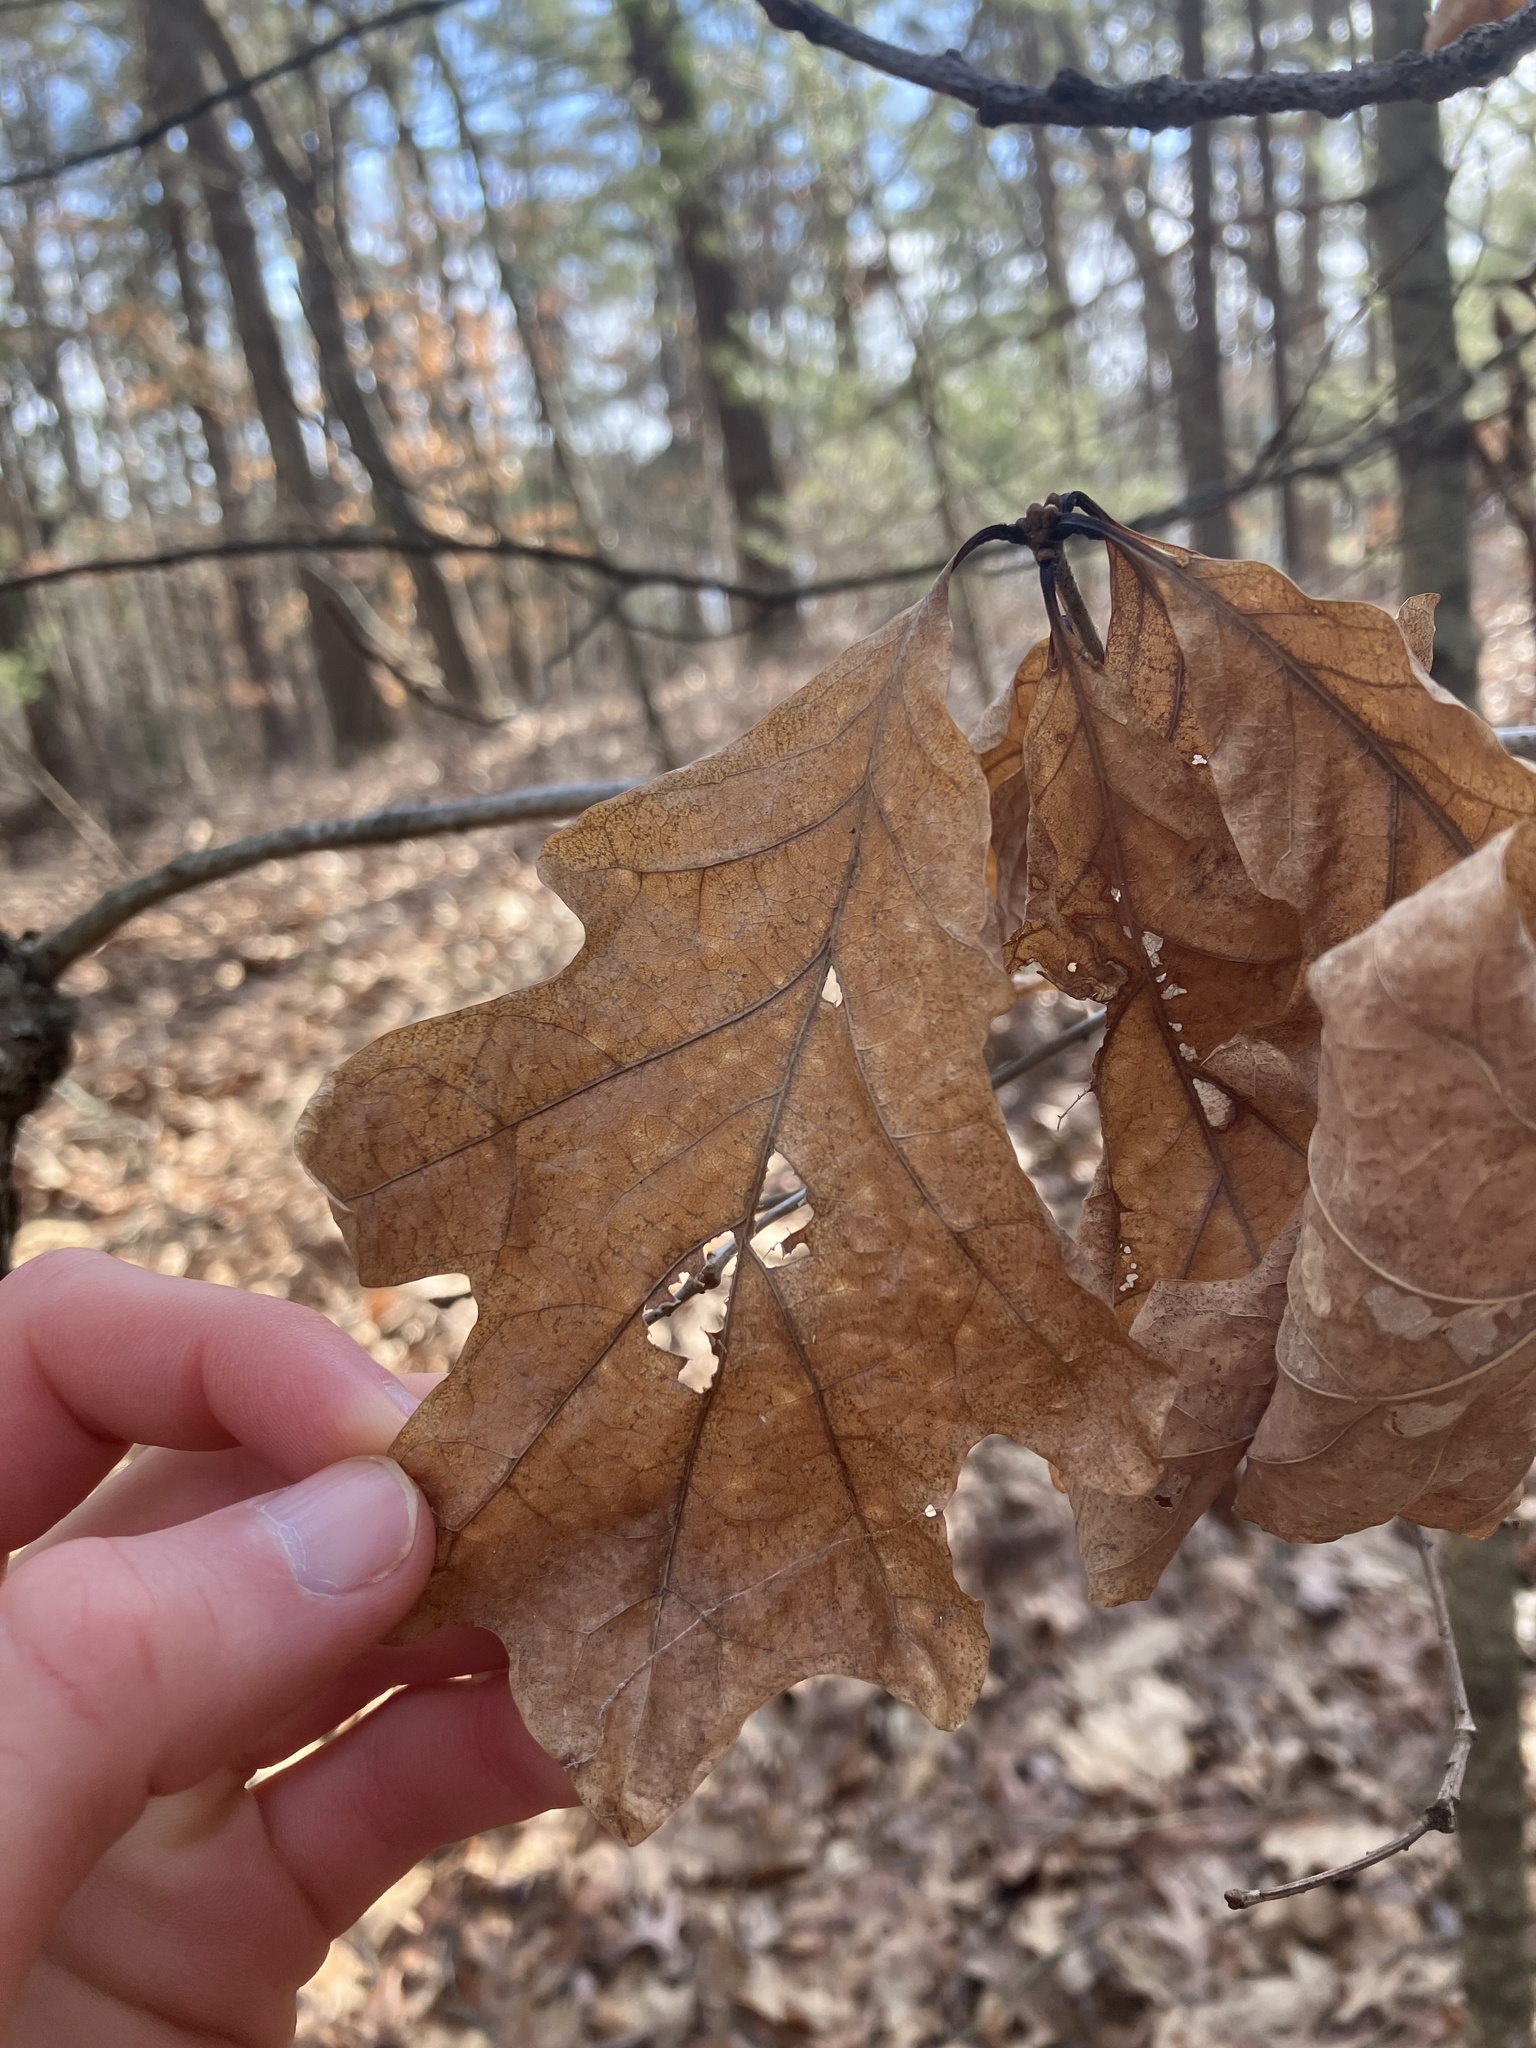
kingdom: Plantae
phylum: Tracheophyta
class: Magnoliopsida
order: Fagales
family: Fagaceae
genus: Quercus
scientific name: Quercus alba
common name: White oak
